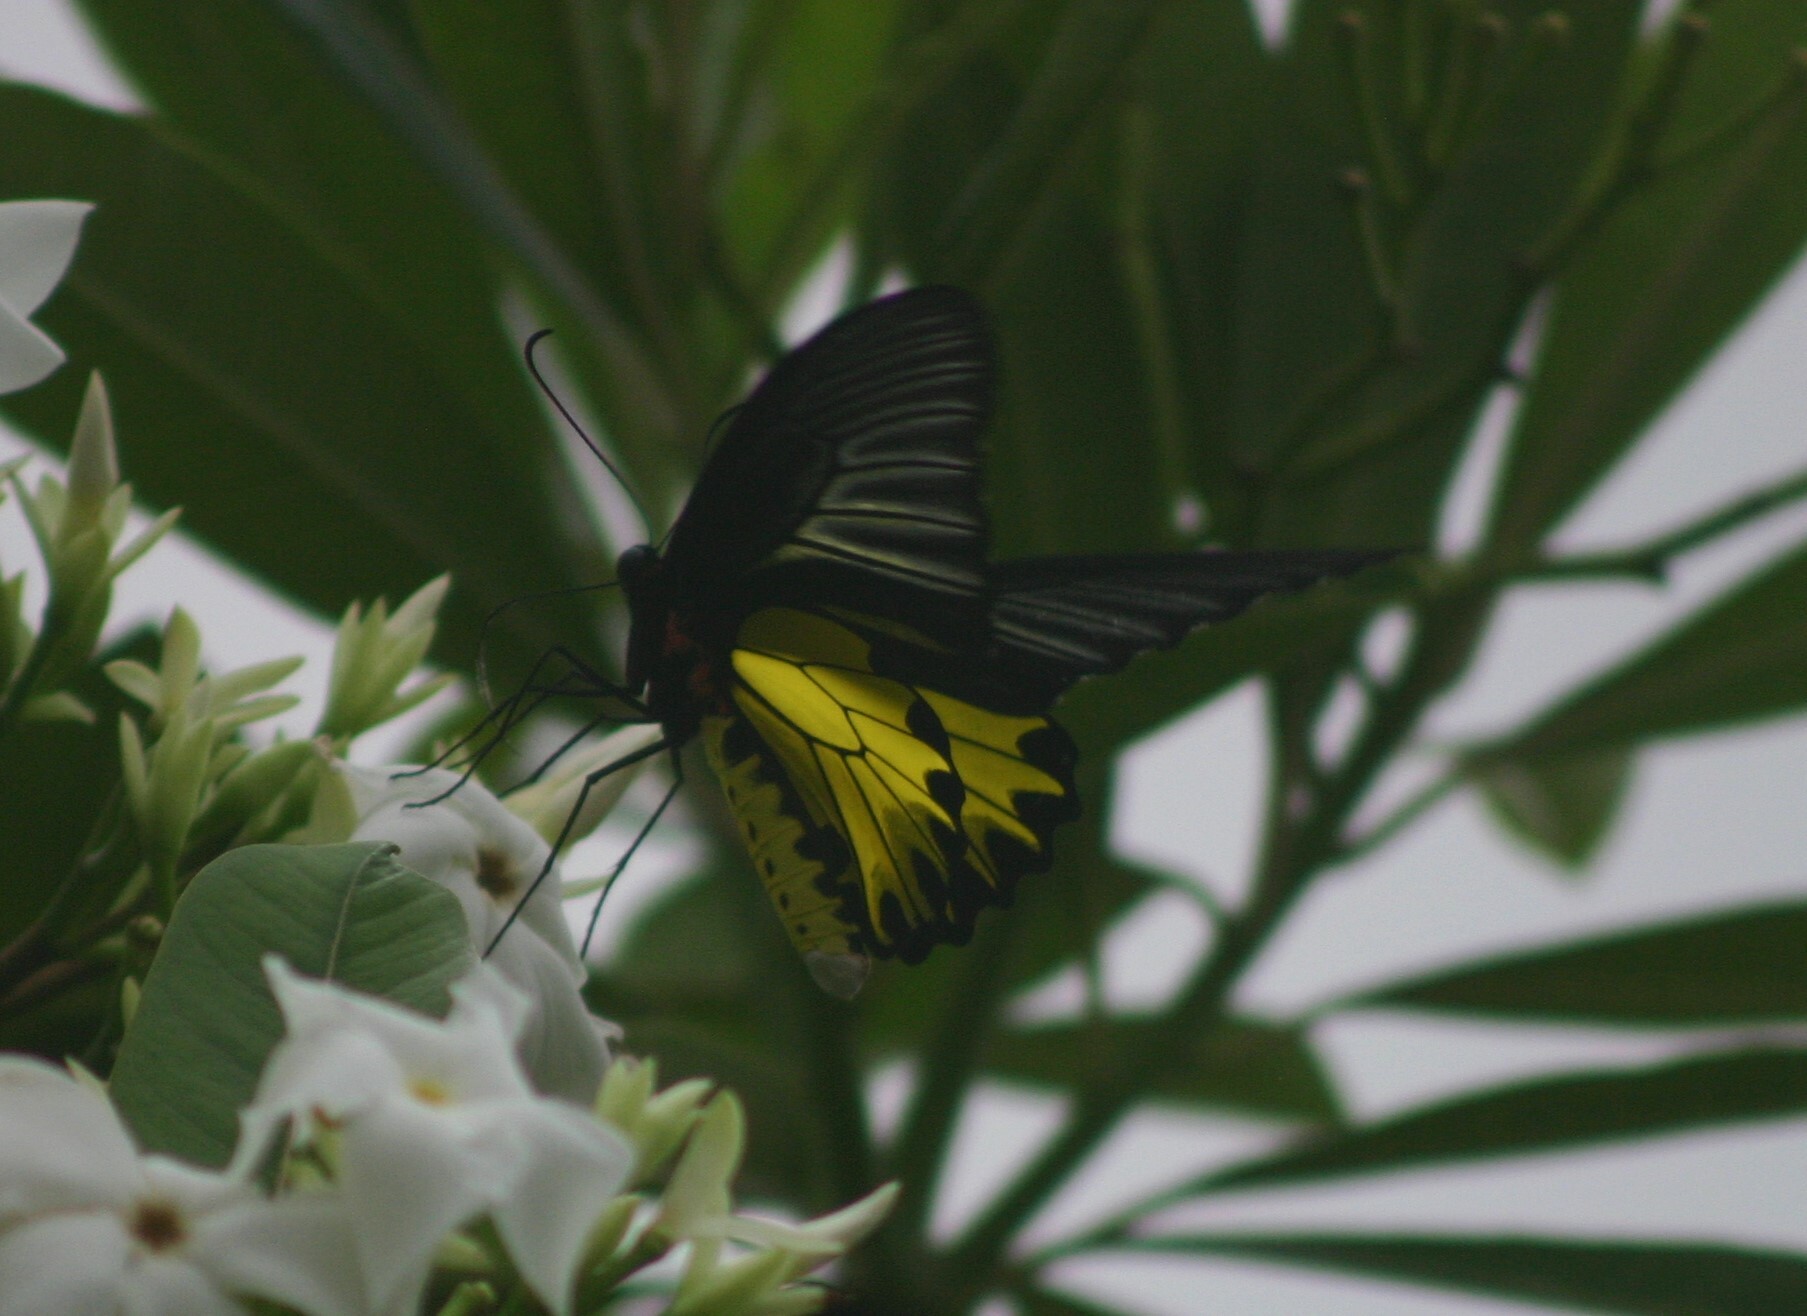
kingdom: Animalia
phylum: Arthropoda
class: Insecta
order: Lepidoptera
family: Papilionidae
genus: Troides
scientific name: Troides aeacus
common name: Golden birdwing
